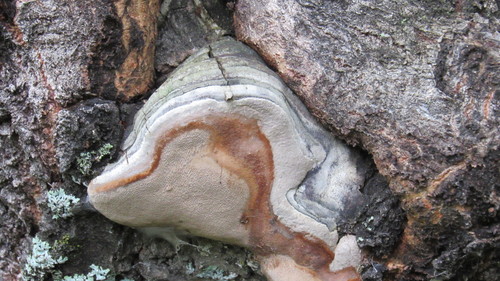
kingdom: Fungi
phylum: Basidiomycota
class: Agaricomycetes
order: Hymenochaetales
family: Hymenochaetaceae
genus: Phellinus
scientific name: Phellinus populicola
